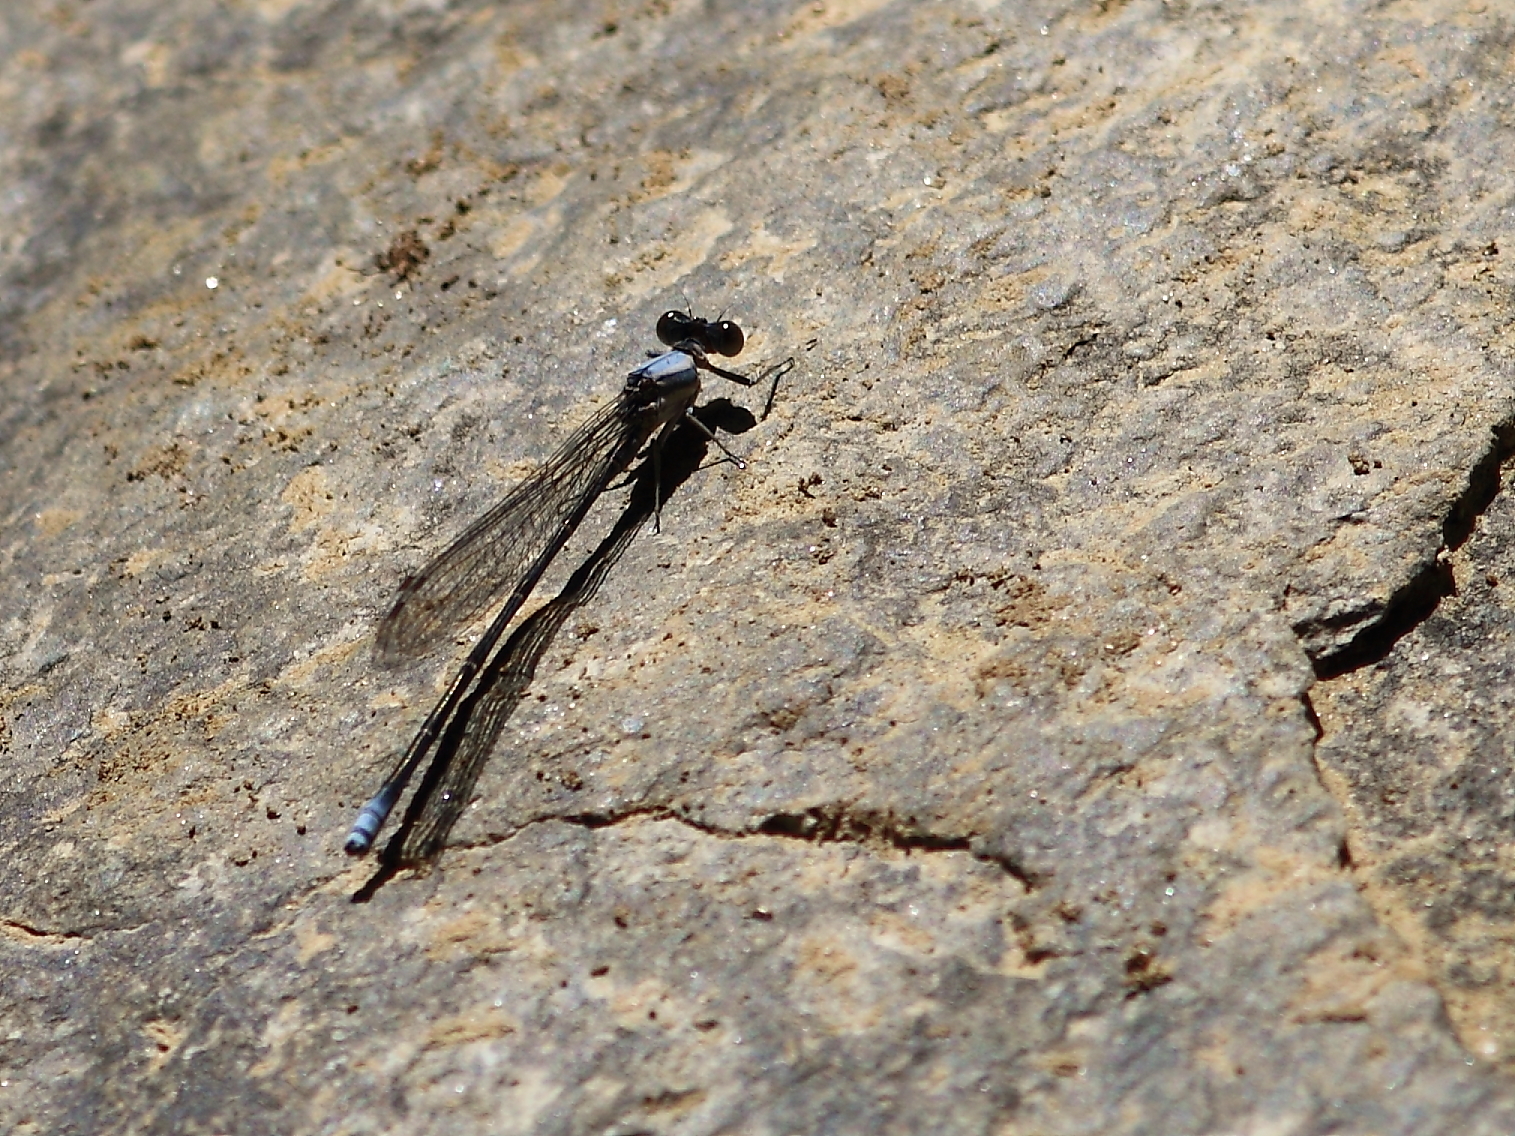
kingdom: Animalia
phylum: Arthropoda
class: Insecta
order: Odonata
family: Coenagrionidae
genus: Argia
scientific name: Argia moesta
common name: Powdered dancer
